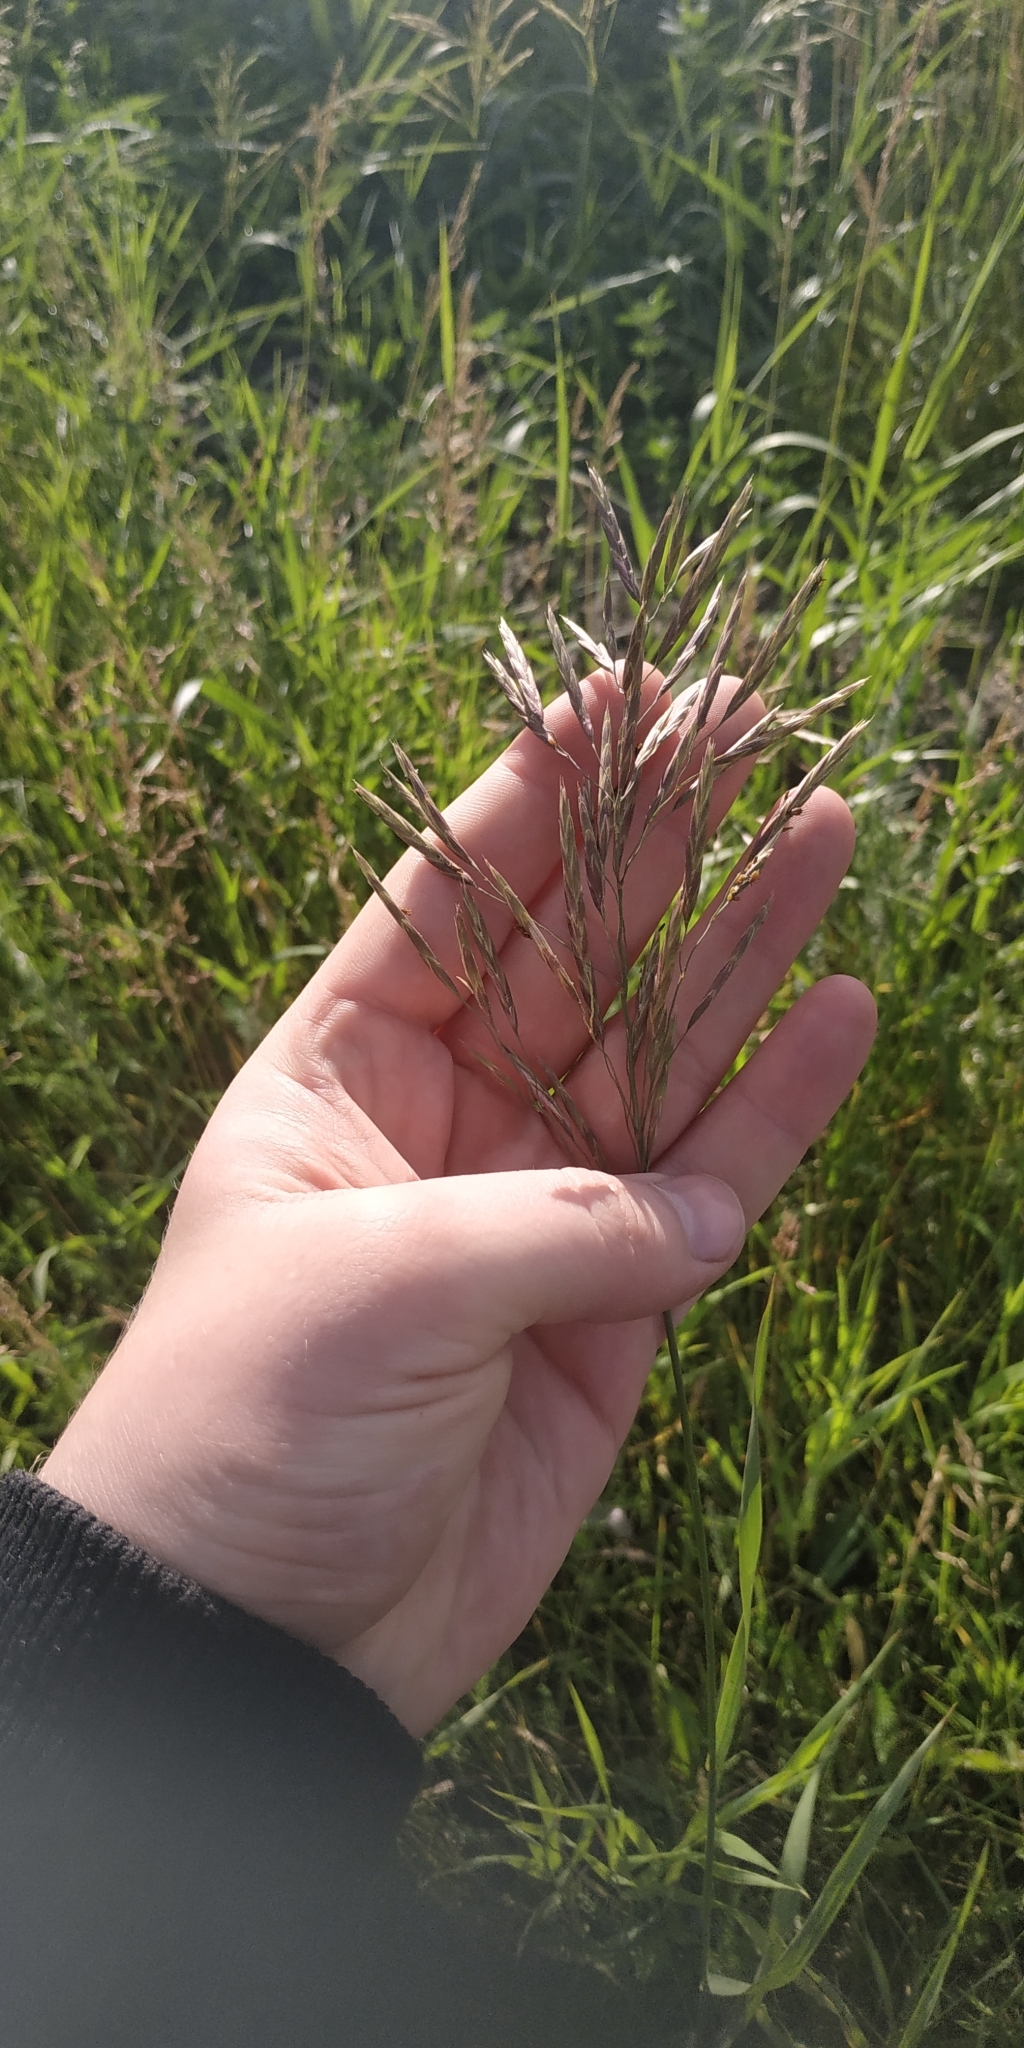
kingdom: Plantae
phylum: Tracheophyta
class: Liliopsida
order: Poales
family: Poaceae
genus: Bromus
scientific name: Bromus inermis
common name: Smooth brome
